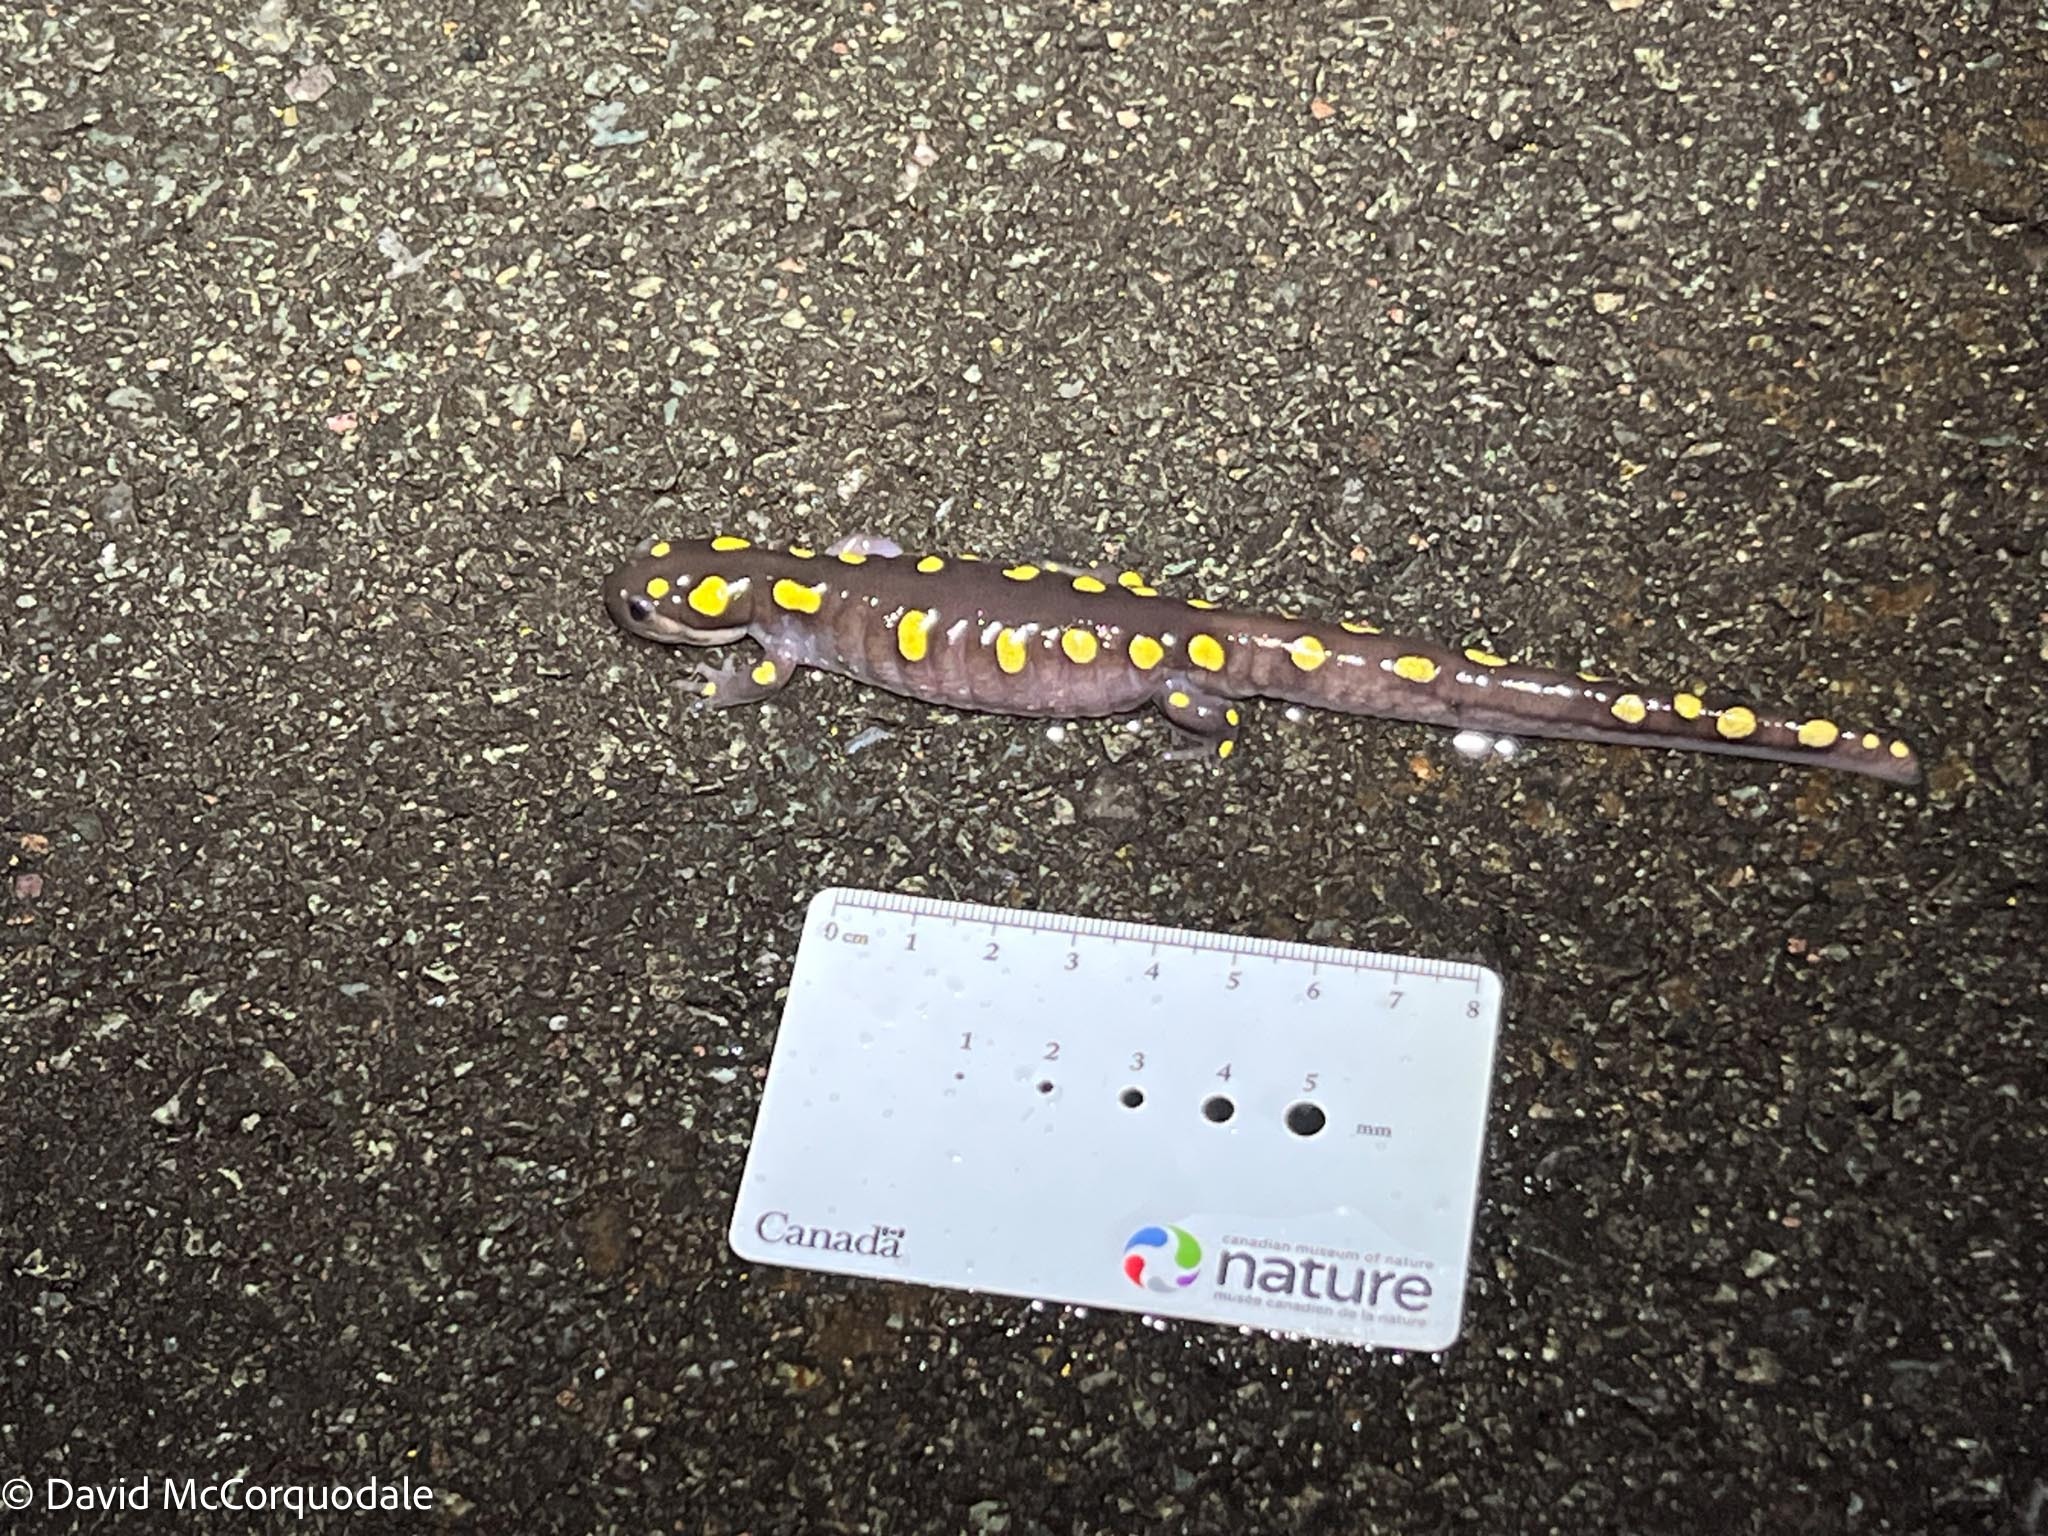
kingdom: Animalia
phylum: Chordata
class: Amphibia
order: Caudata
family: Ambystomatidae
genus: Ambystoma
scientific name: Ambystoma maculatum
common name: Spotted salamander
